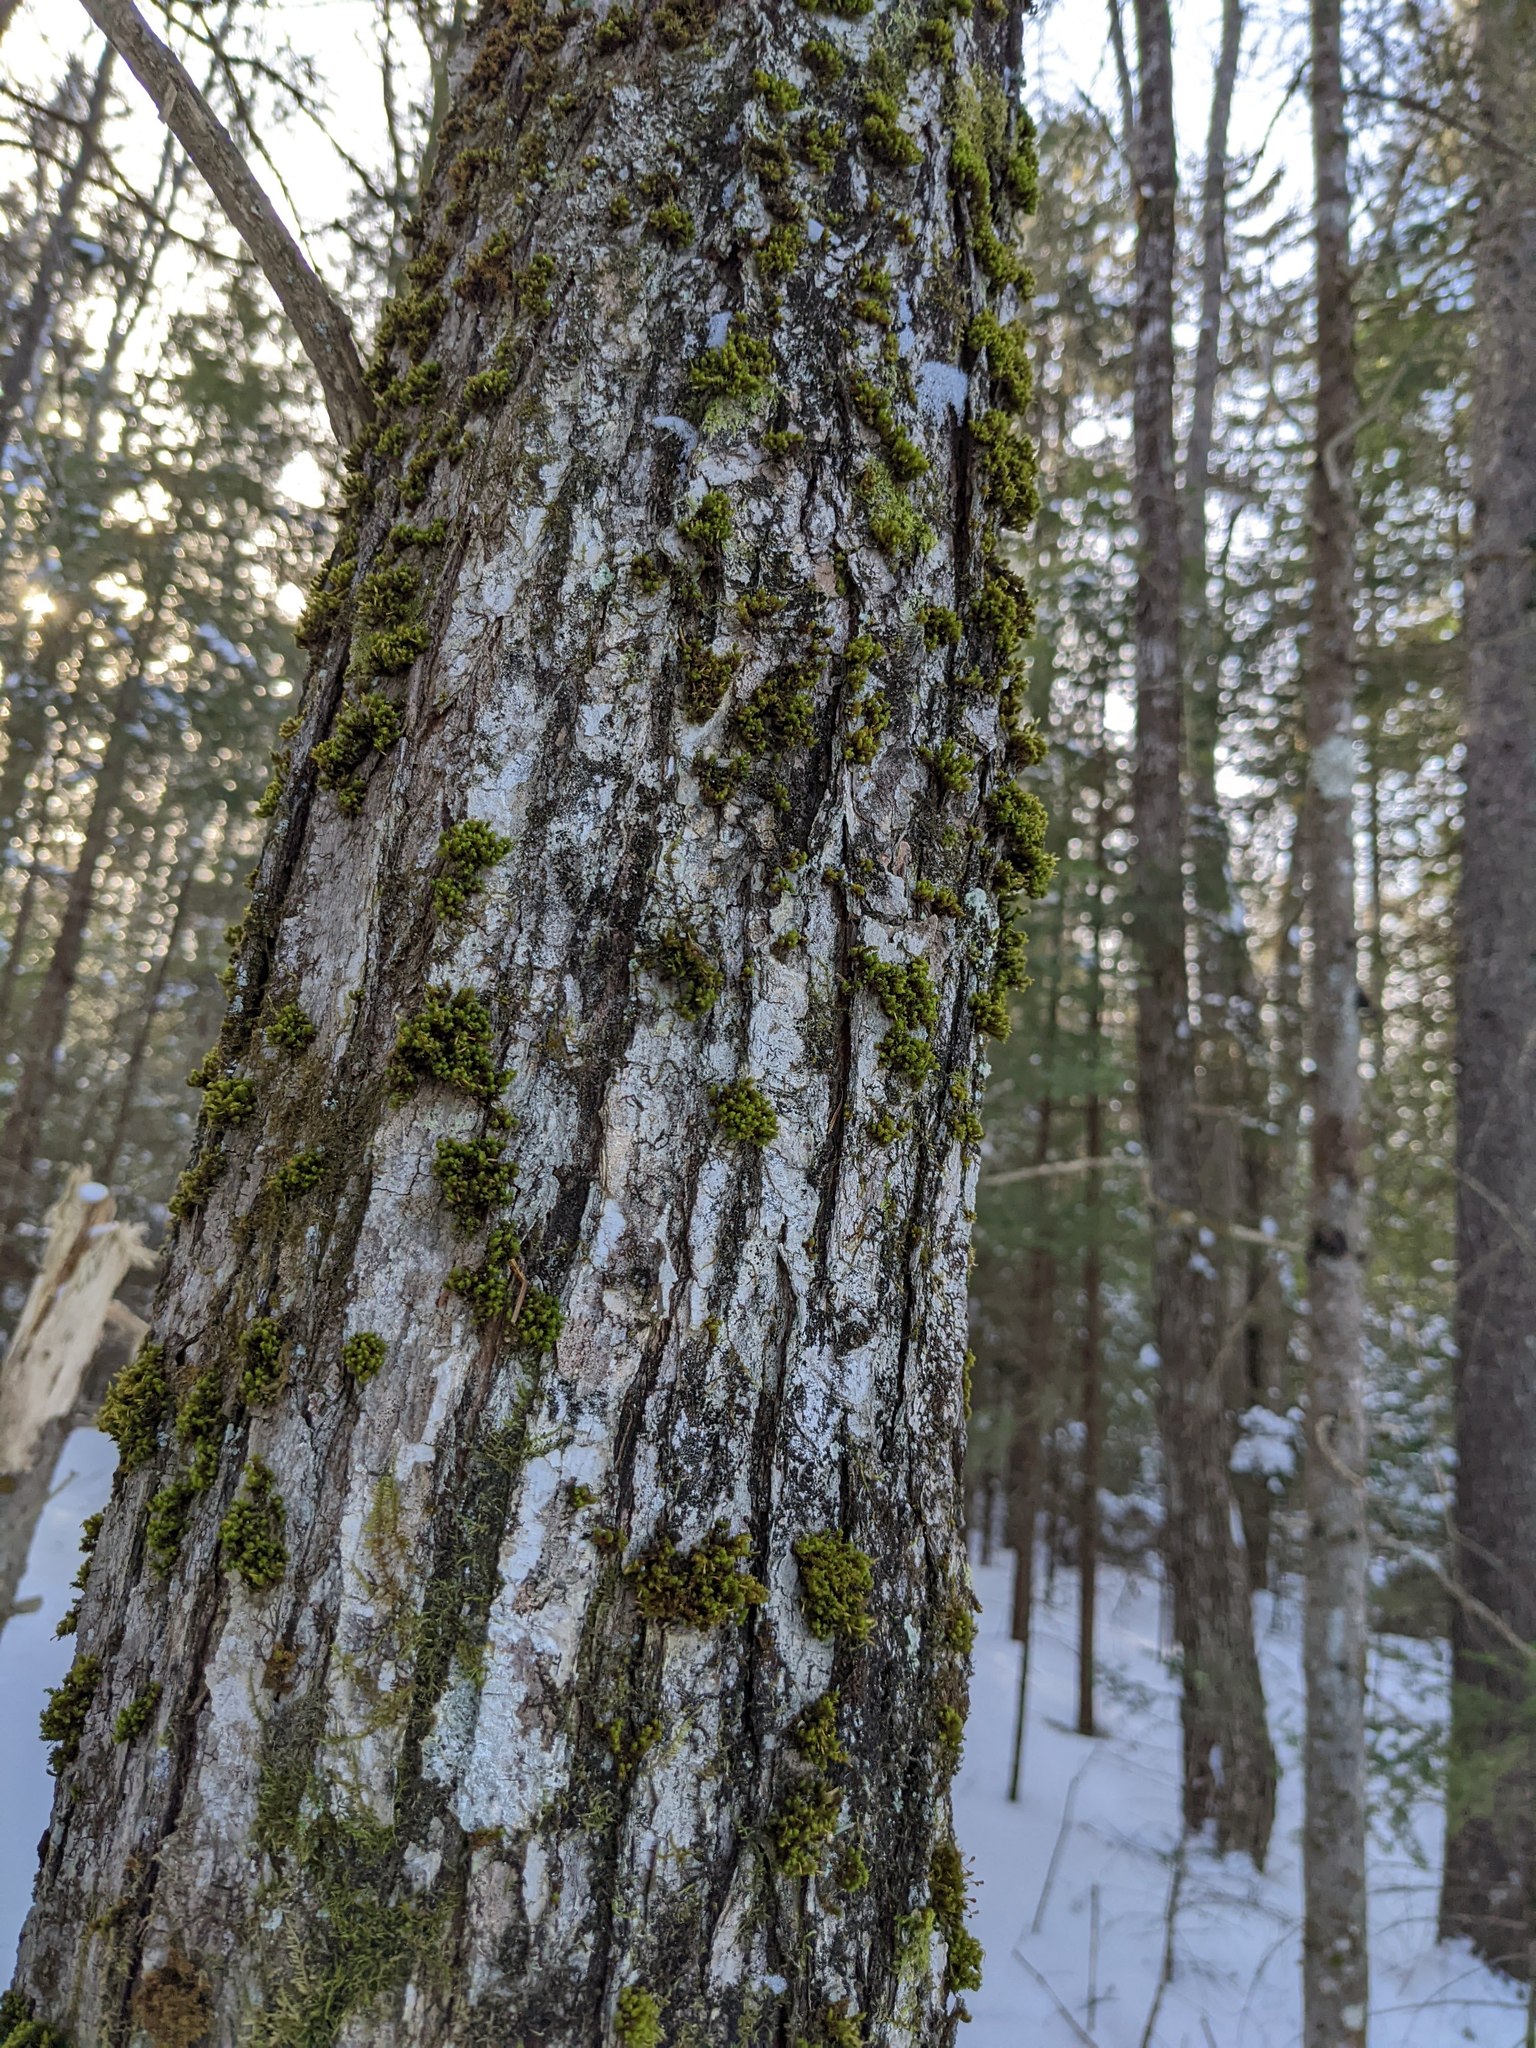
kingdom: Plantae
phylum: Bryophyta
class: Bryopsida
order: Orthotrichales
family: Orthotrichaceae
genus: Ulota
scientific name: Ulota crispa
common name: Crisped pincushion moss
